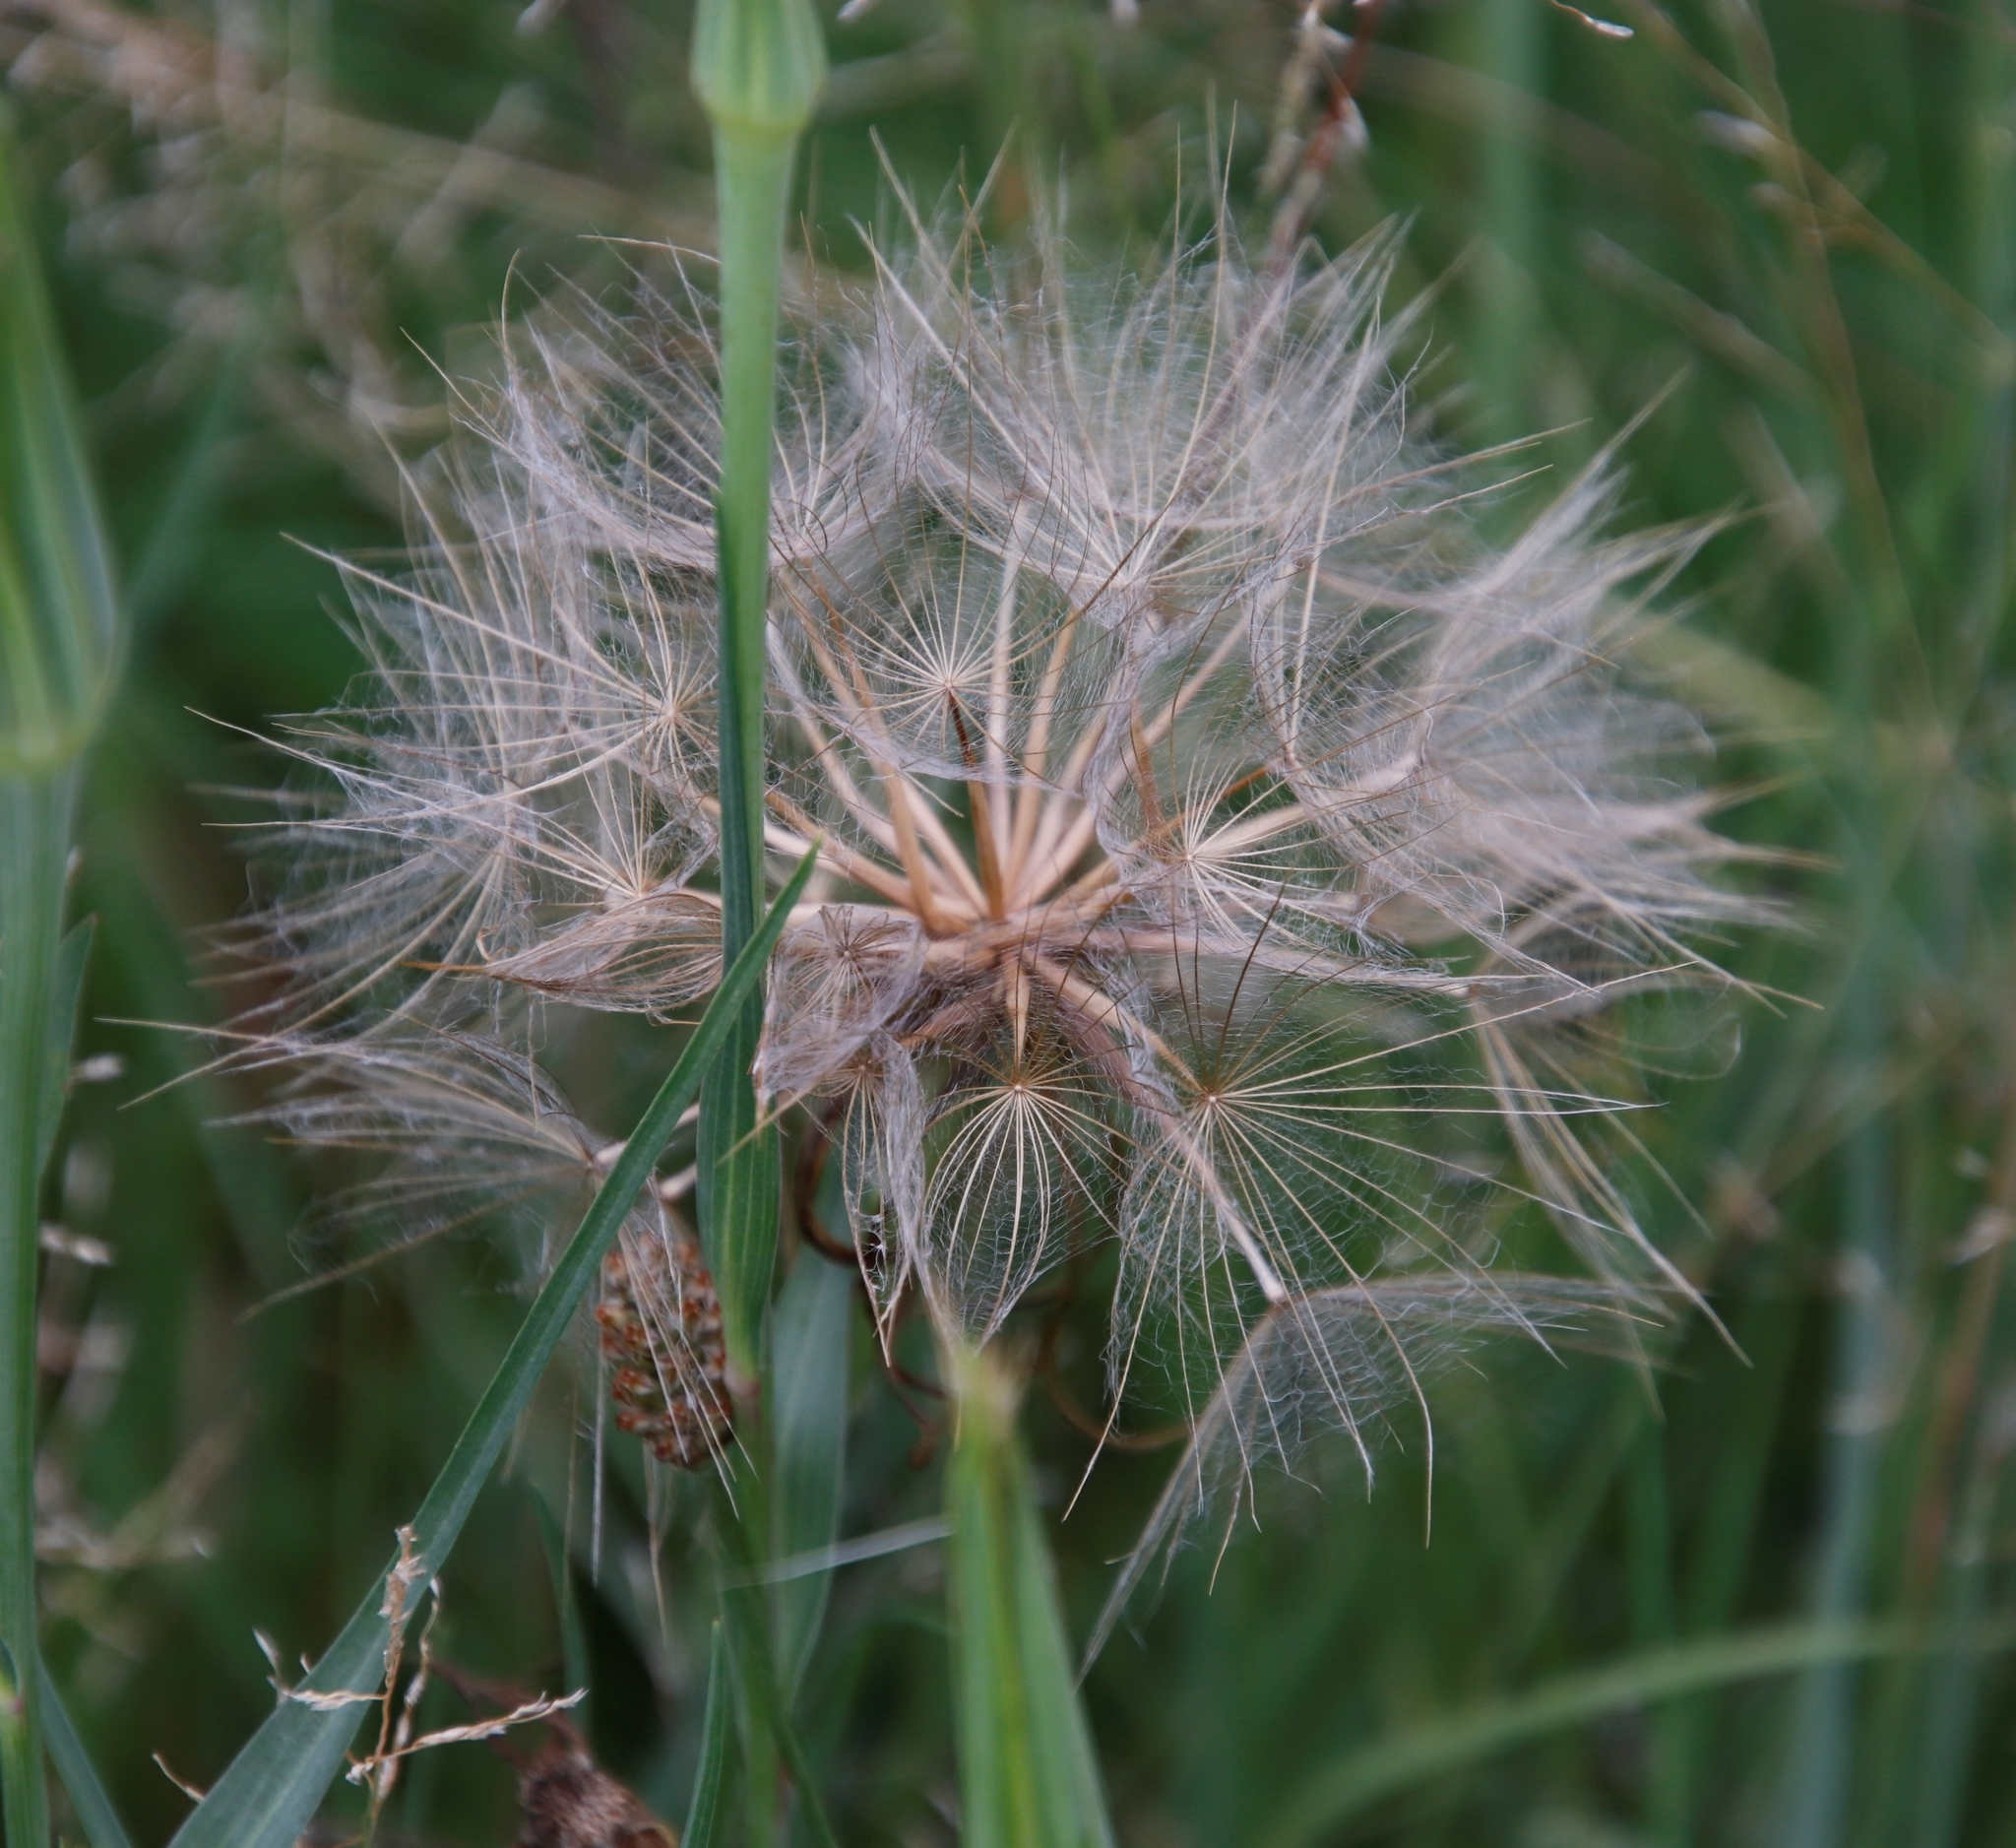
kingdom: Plantae
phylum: Tracheophyta
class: Magnoliopsida
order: Asterales
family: Asteraceae
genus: Tragopogon
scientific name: Tragopogon dubius
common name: Yellow salsify
